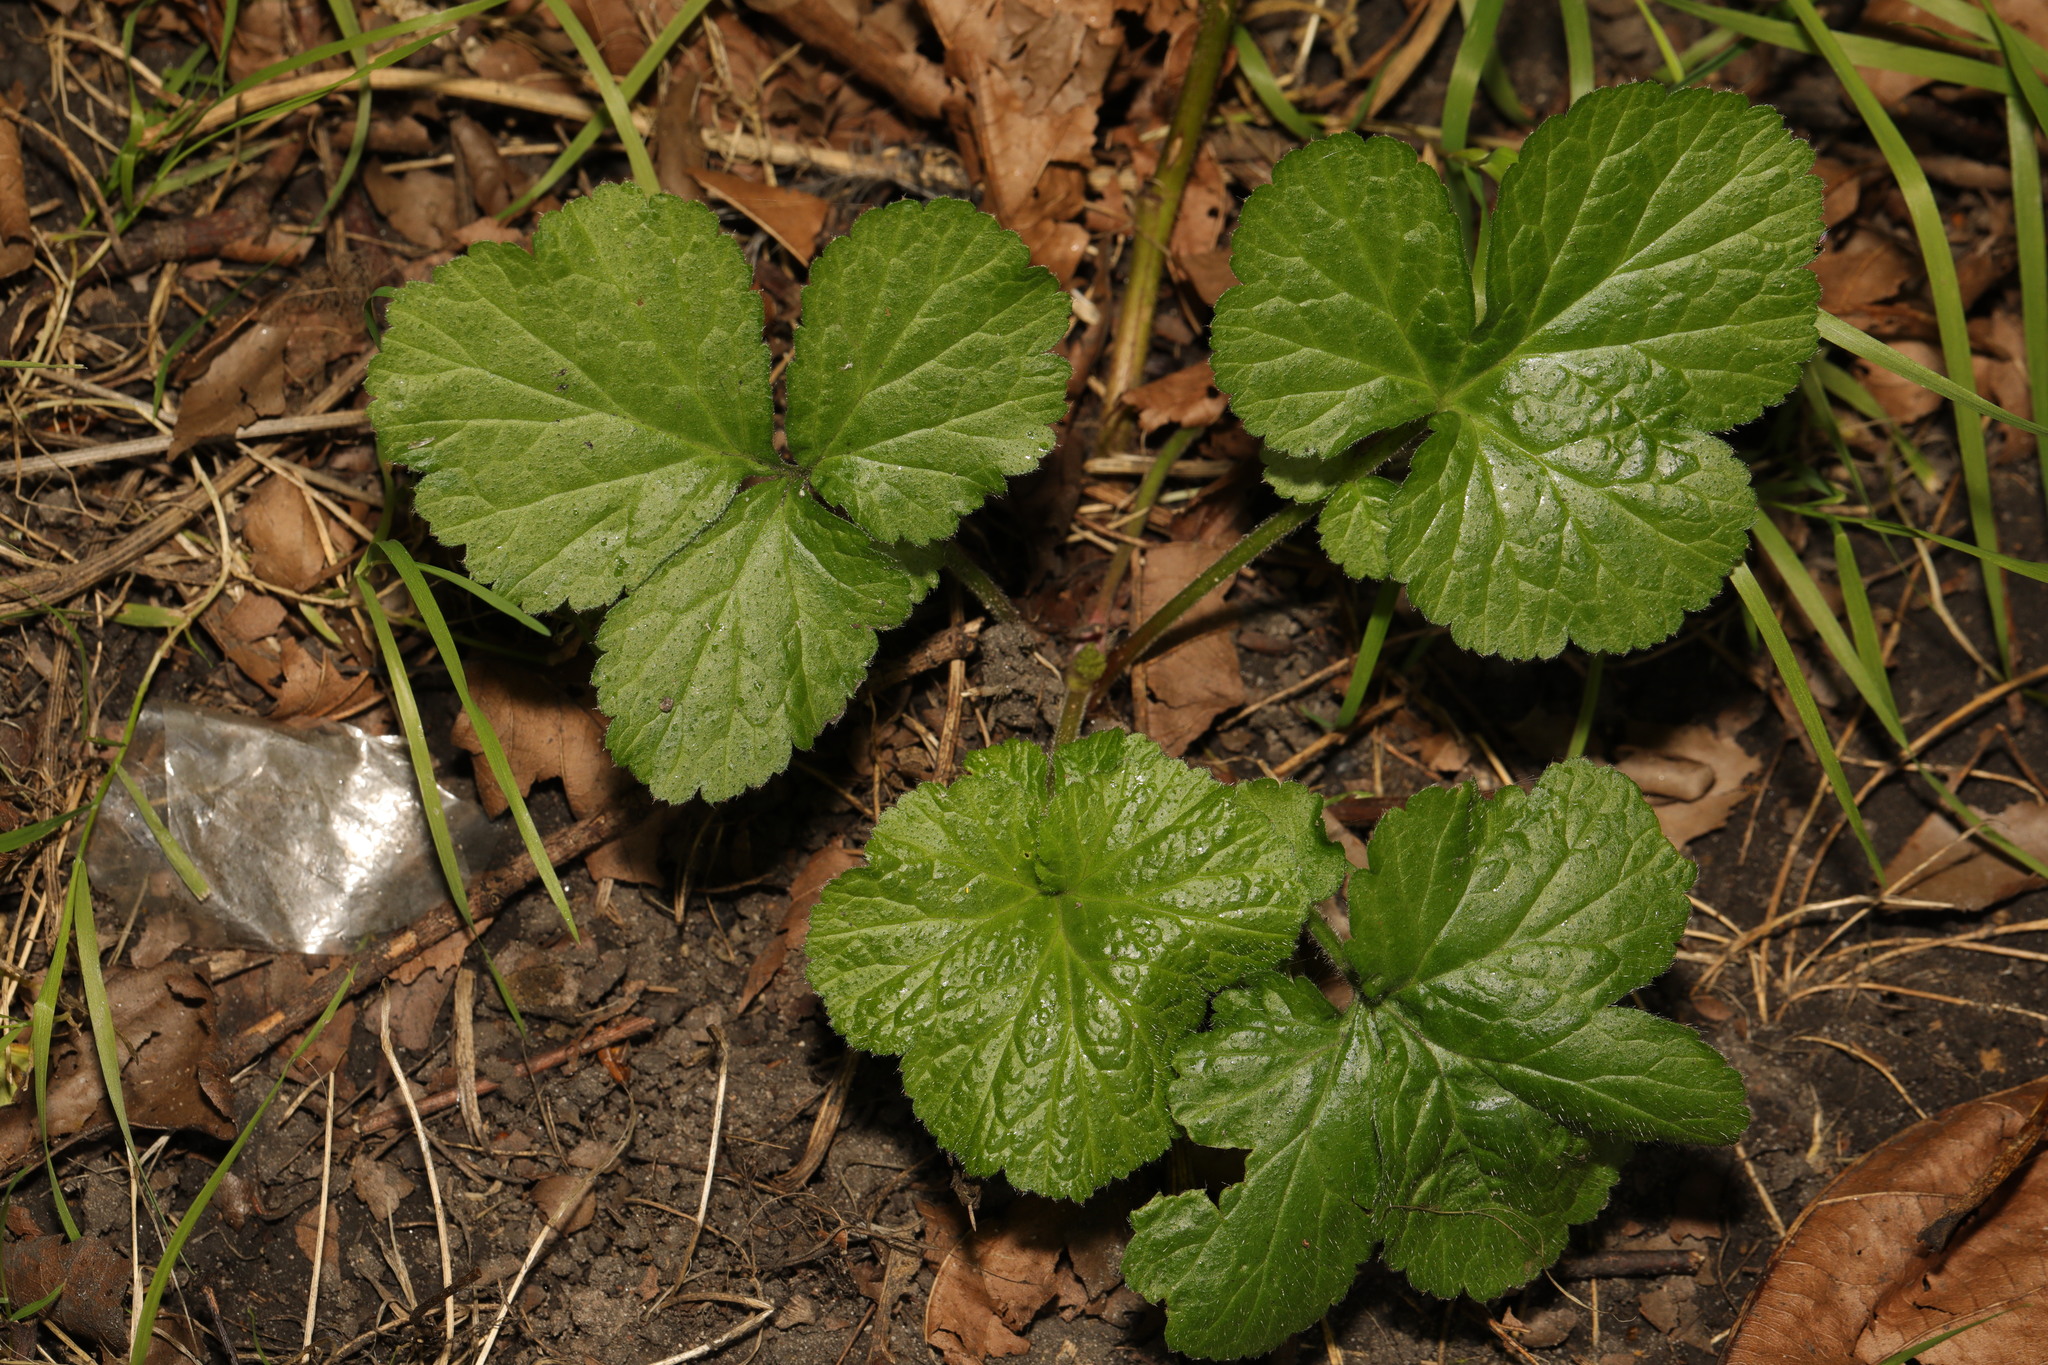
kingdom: Plantae
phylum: Tracheophyta
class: Magnoliopsida
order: Rosales
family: Rosaceae
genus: Geum
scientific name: Geum urbanum
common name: Wood avens
